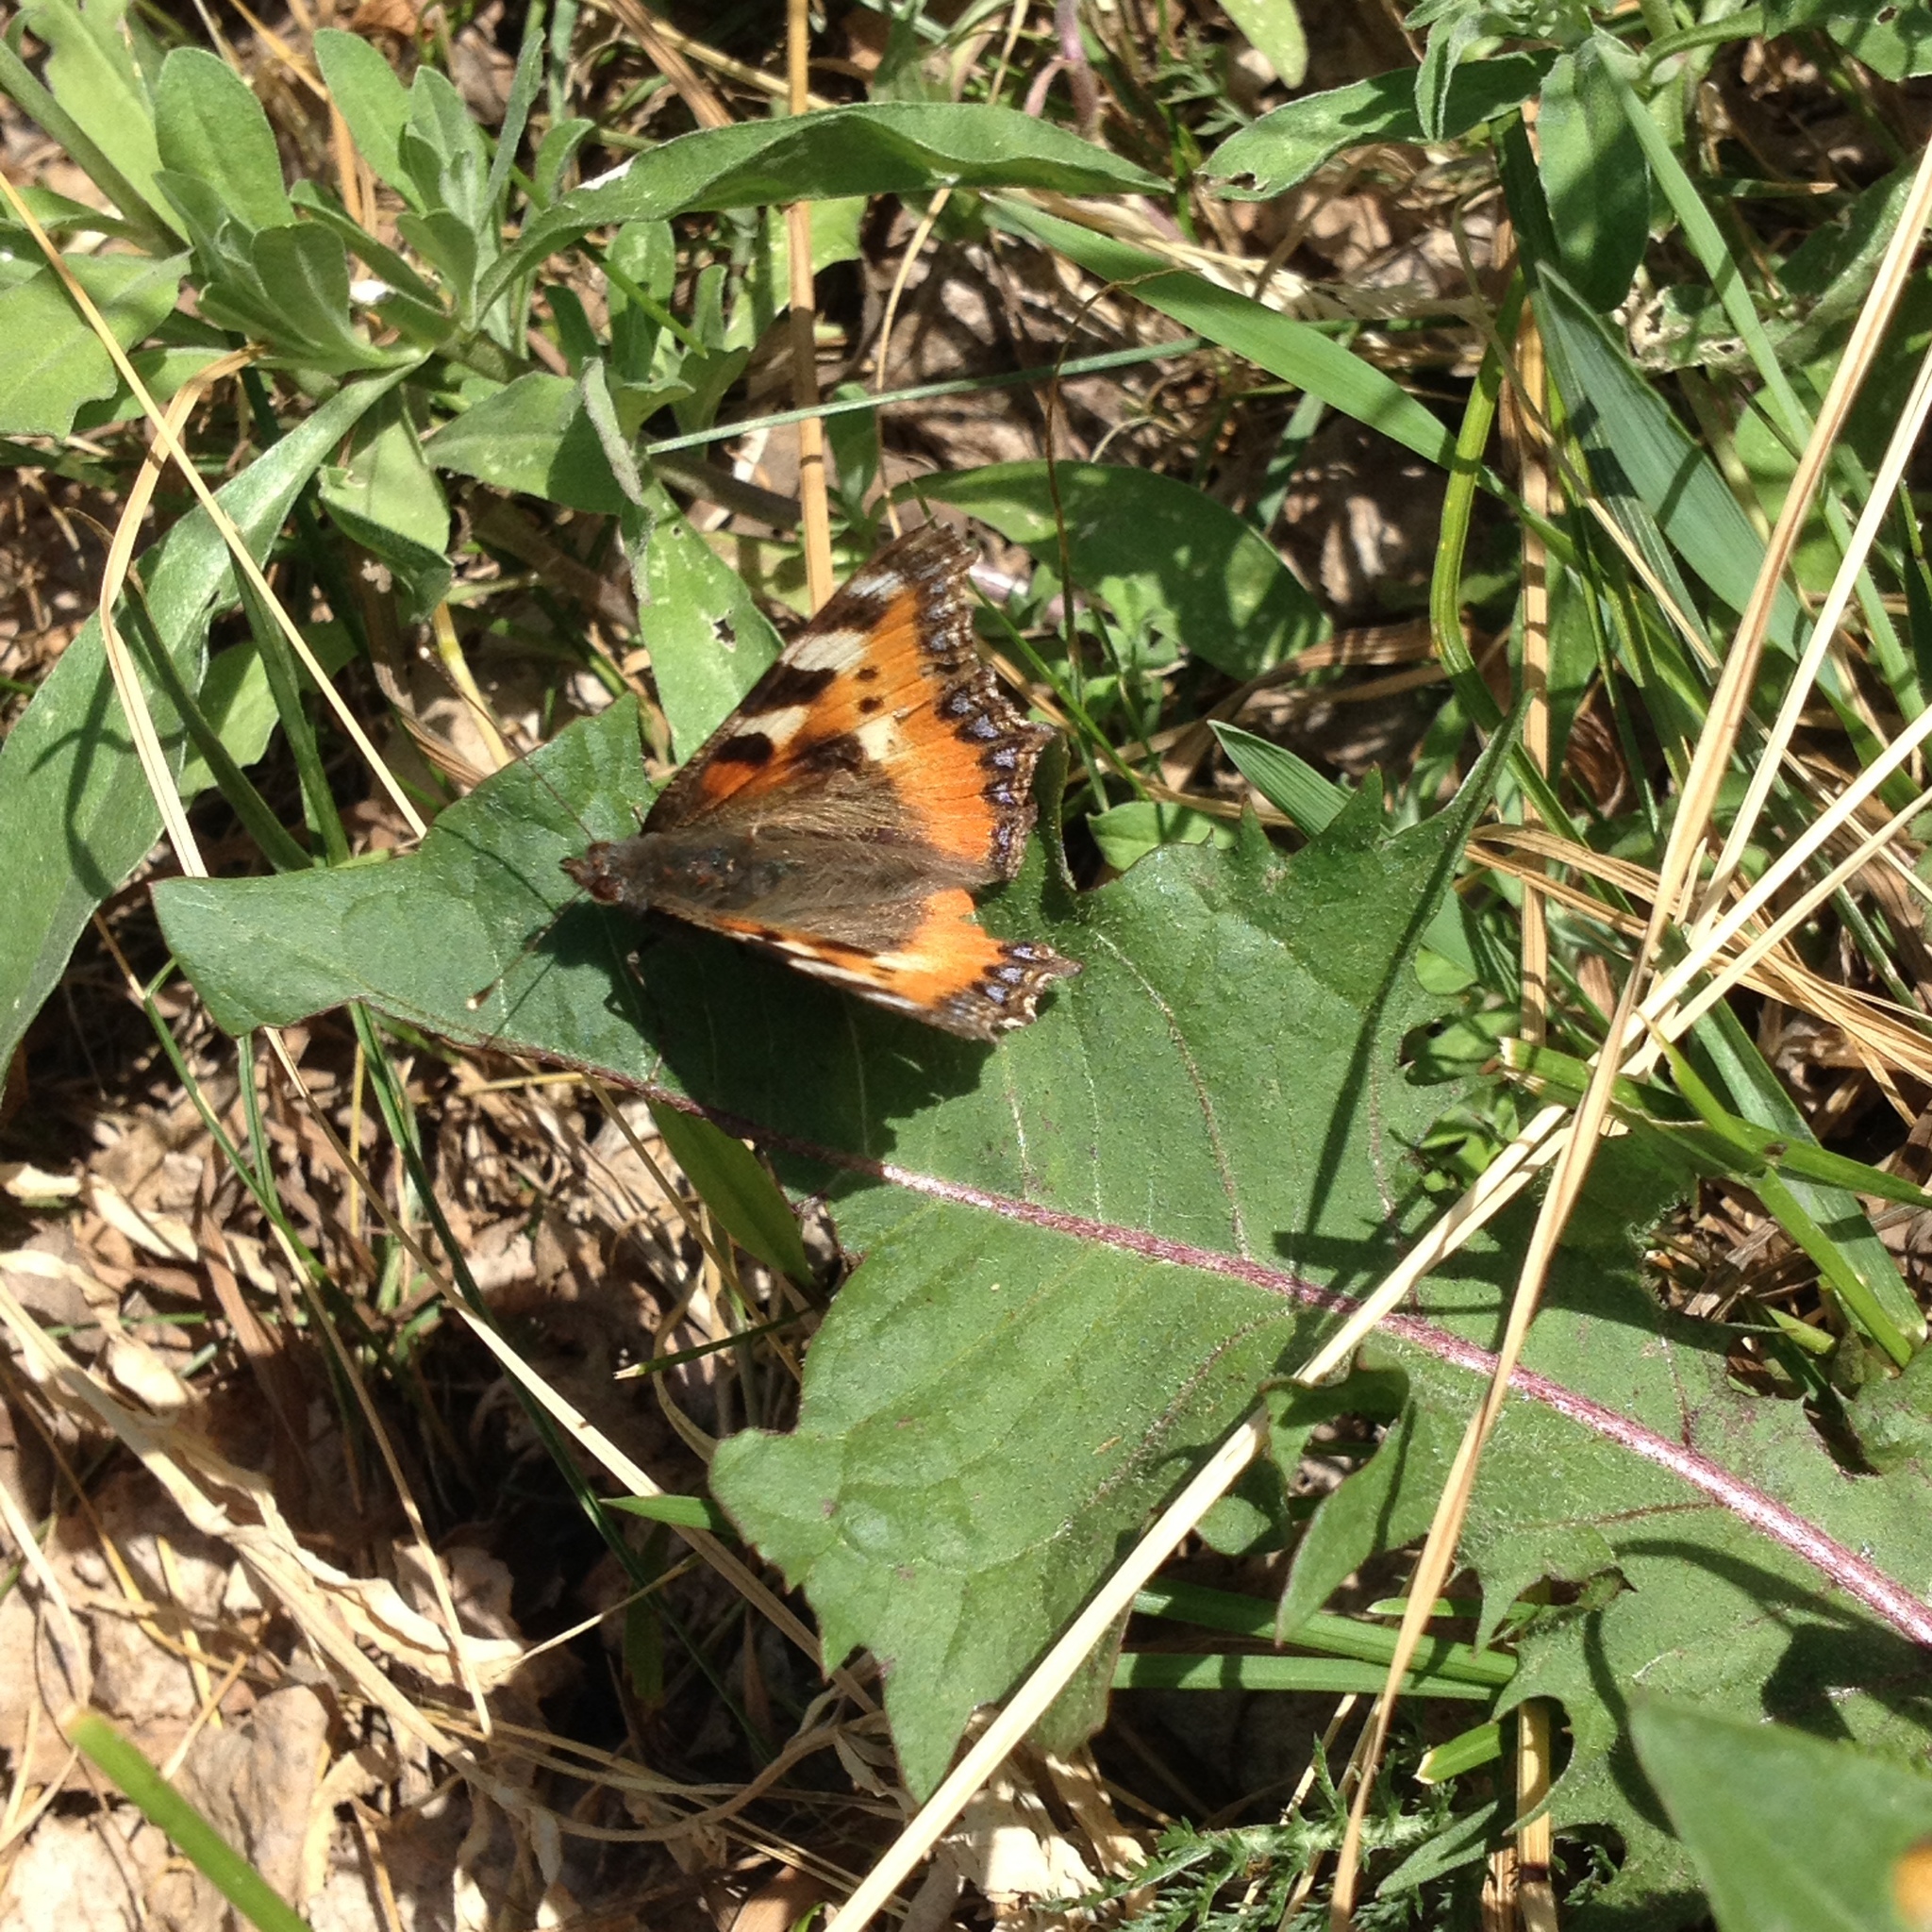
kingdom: Animalia
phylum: Arthropoda
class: Insecta
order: Lepidoptera
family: Nymphalidae
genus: Aglais
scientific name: Aglais urticae
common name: Small tortoiseshell
